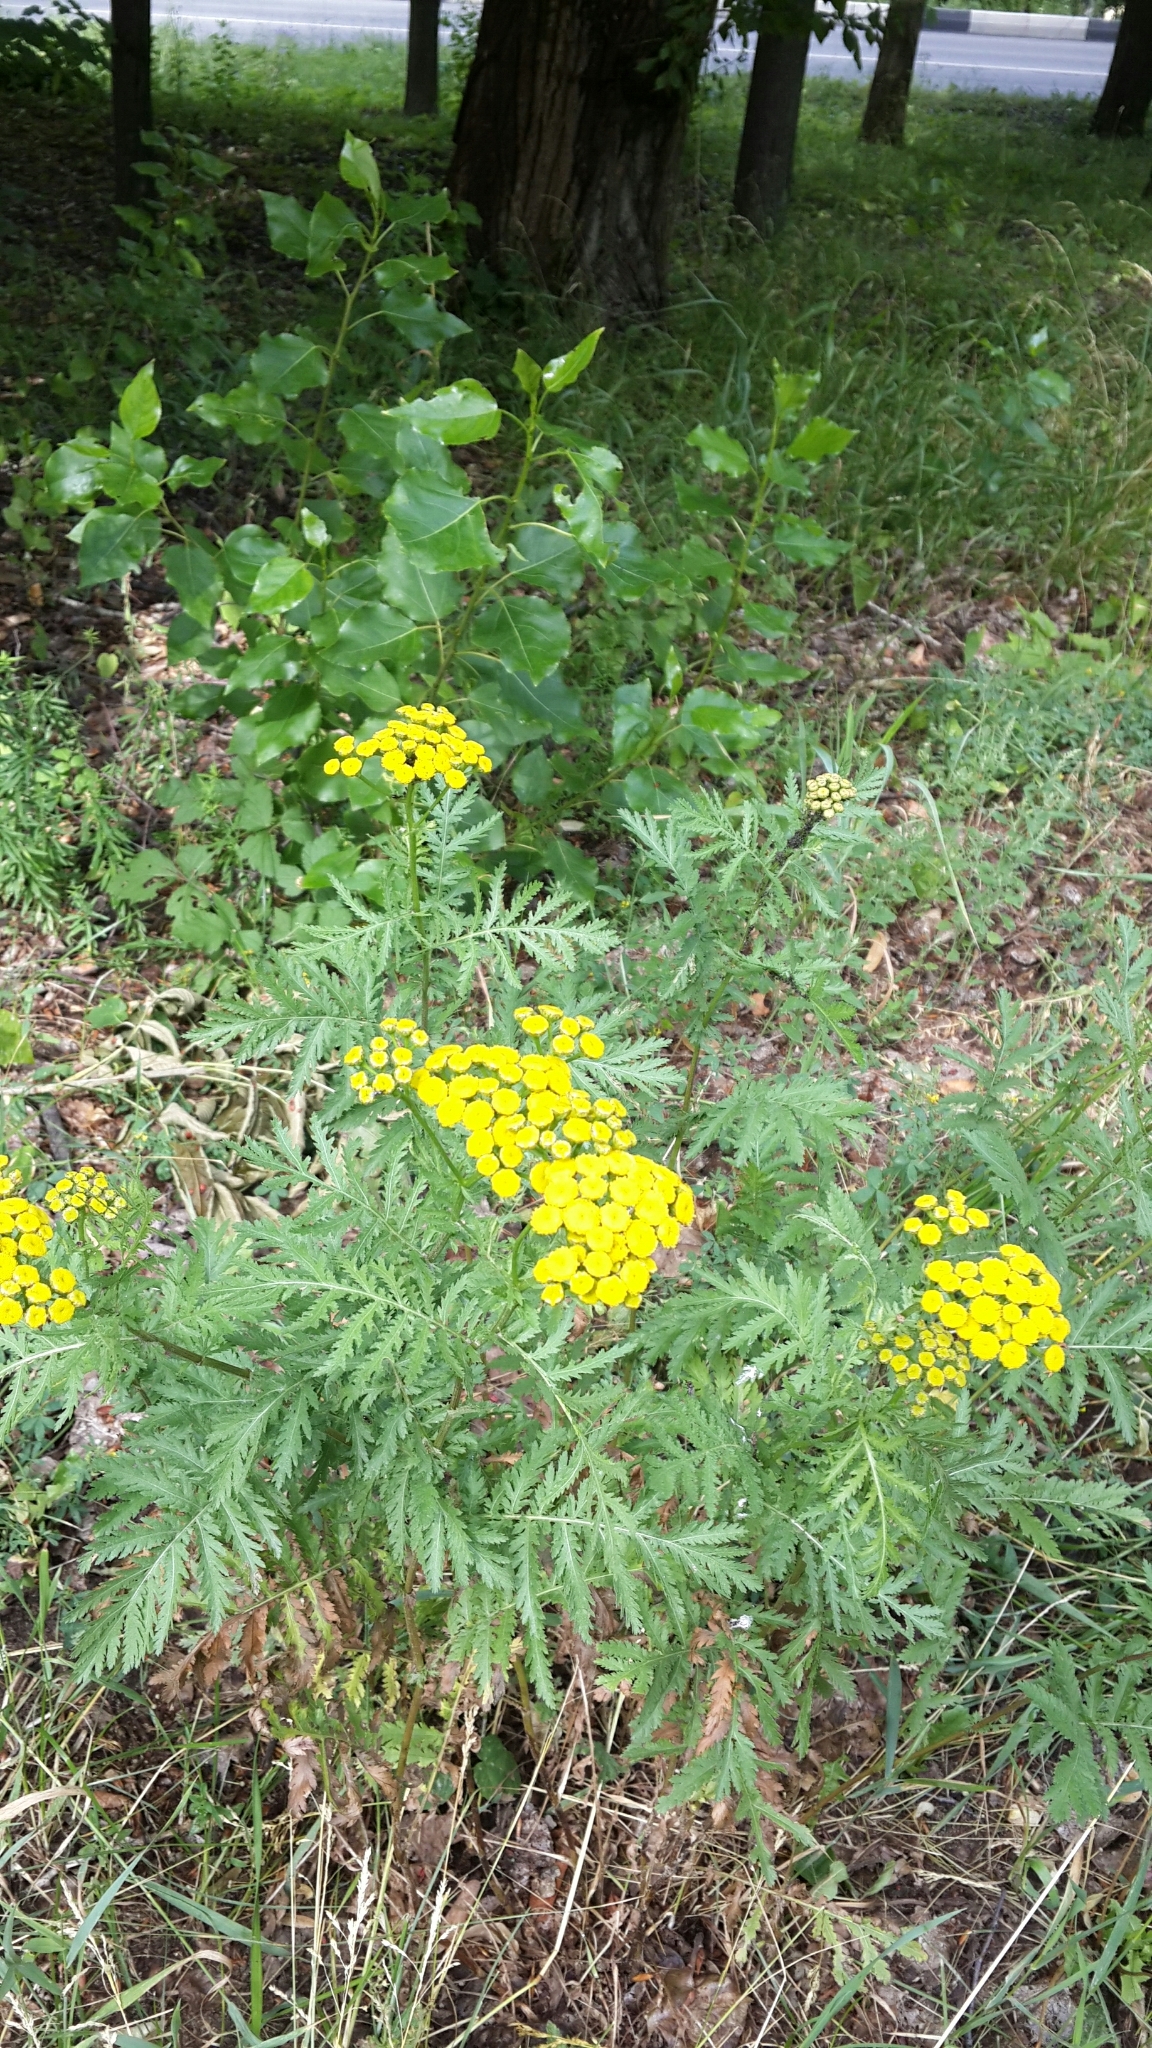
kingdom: Plantae
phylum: Tracheophyta
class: Magnoliopsida
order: Asterales
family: Asteraceae
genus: Tanacetum
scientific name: Tanacetum vulgare
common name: Common tansy
